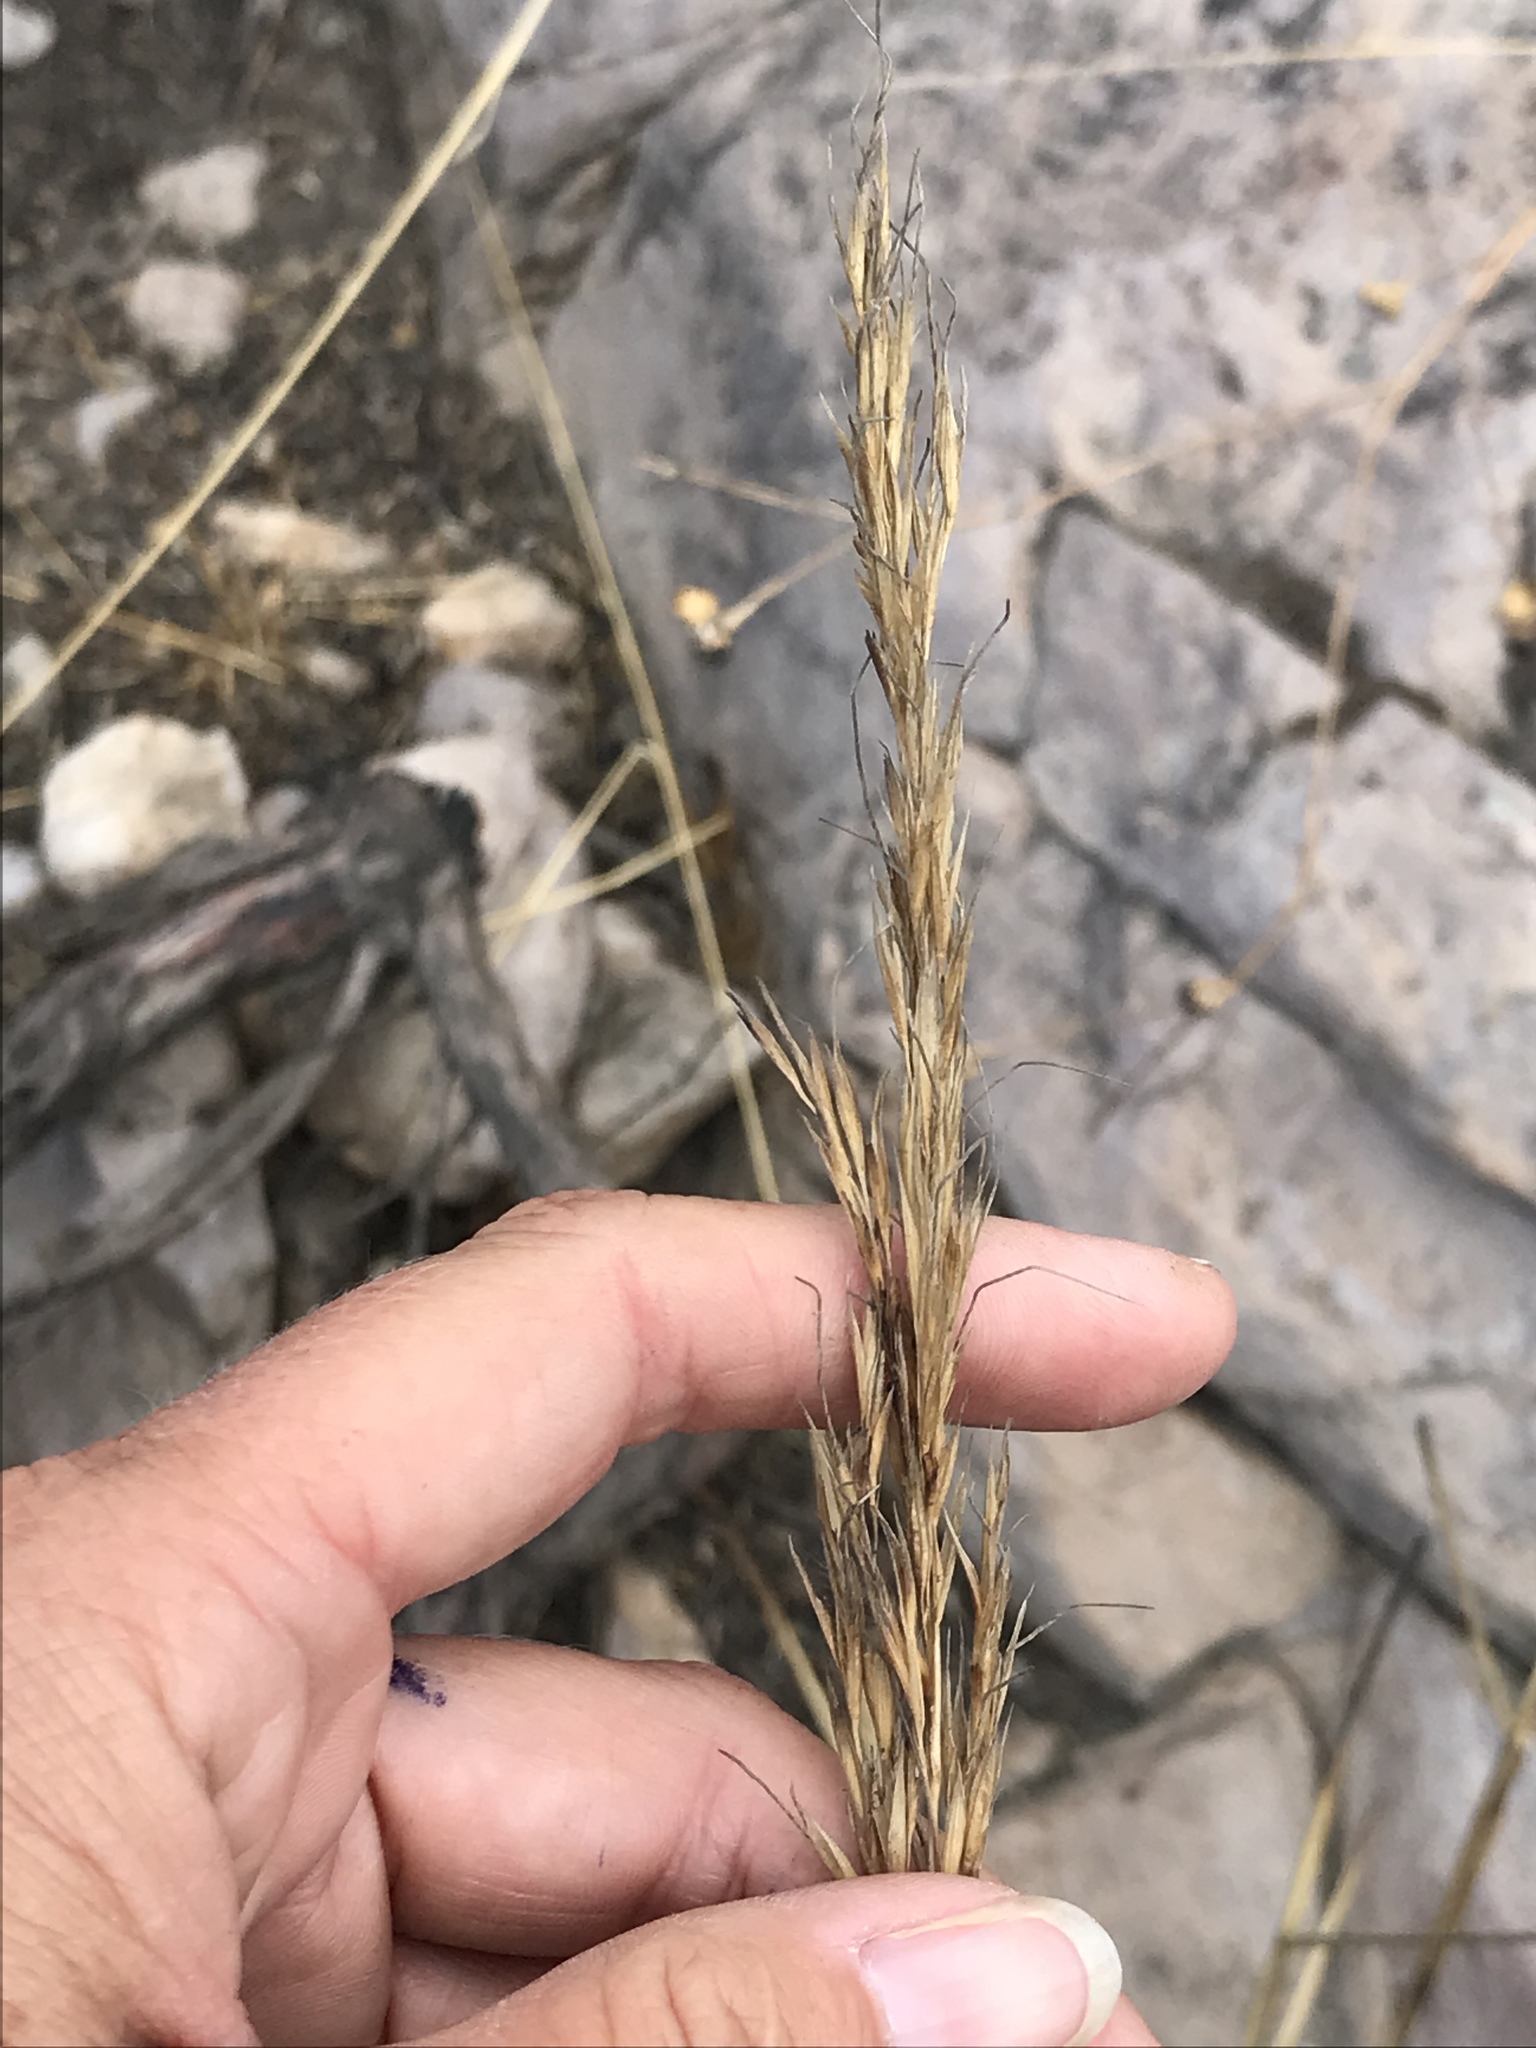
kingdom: Plantae
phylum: Tracheophyta
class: Liliopsida
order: Poales
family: Poaceae
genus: Eriocoma
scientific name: Eriocoma coronata
